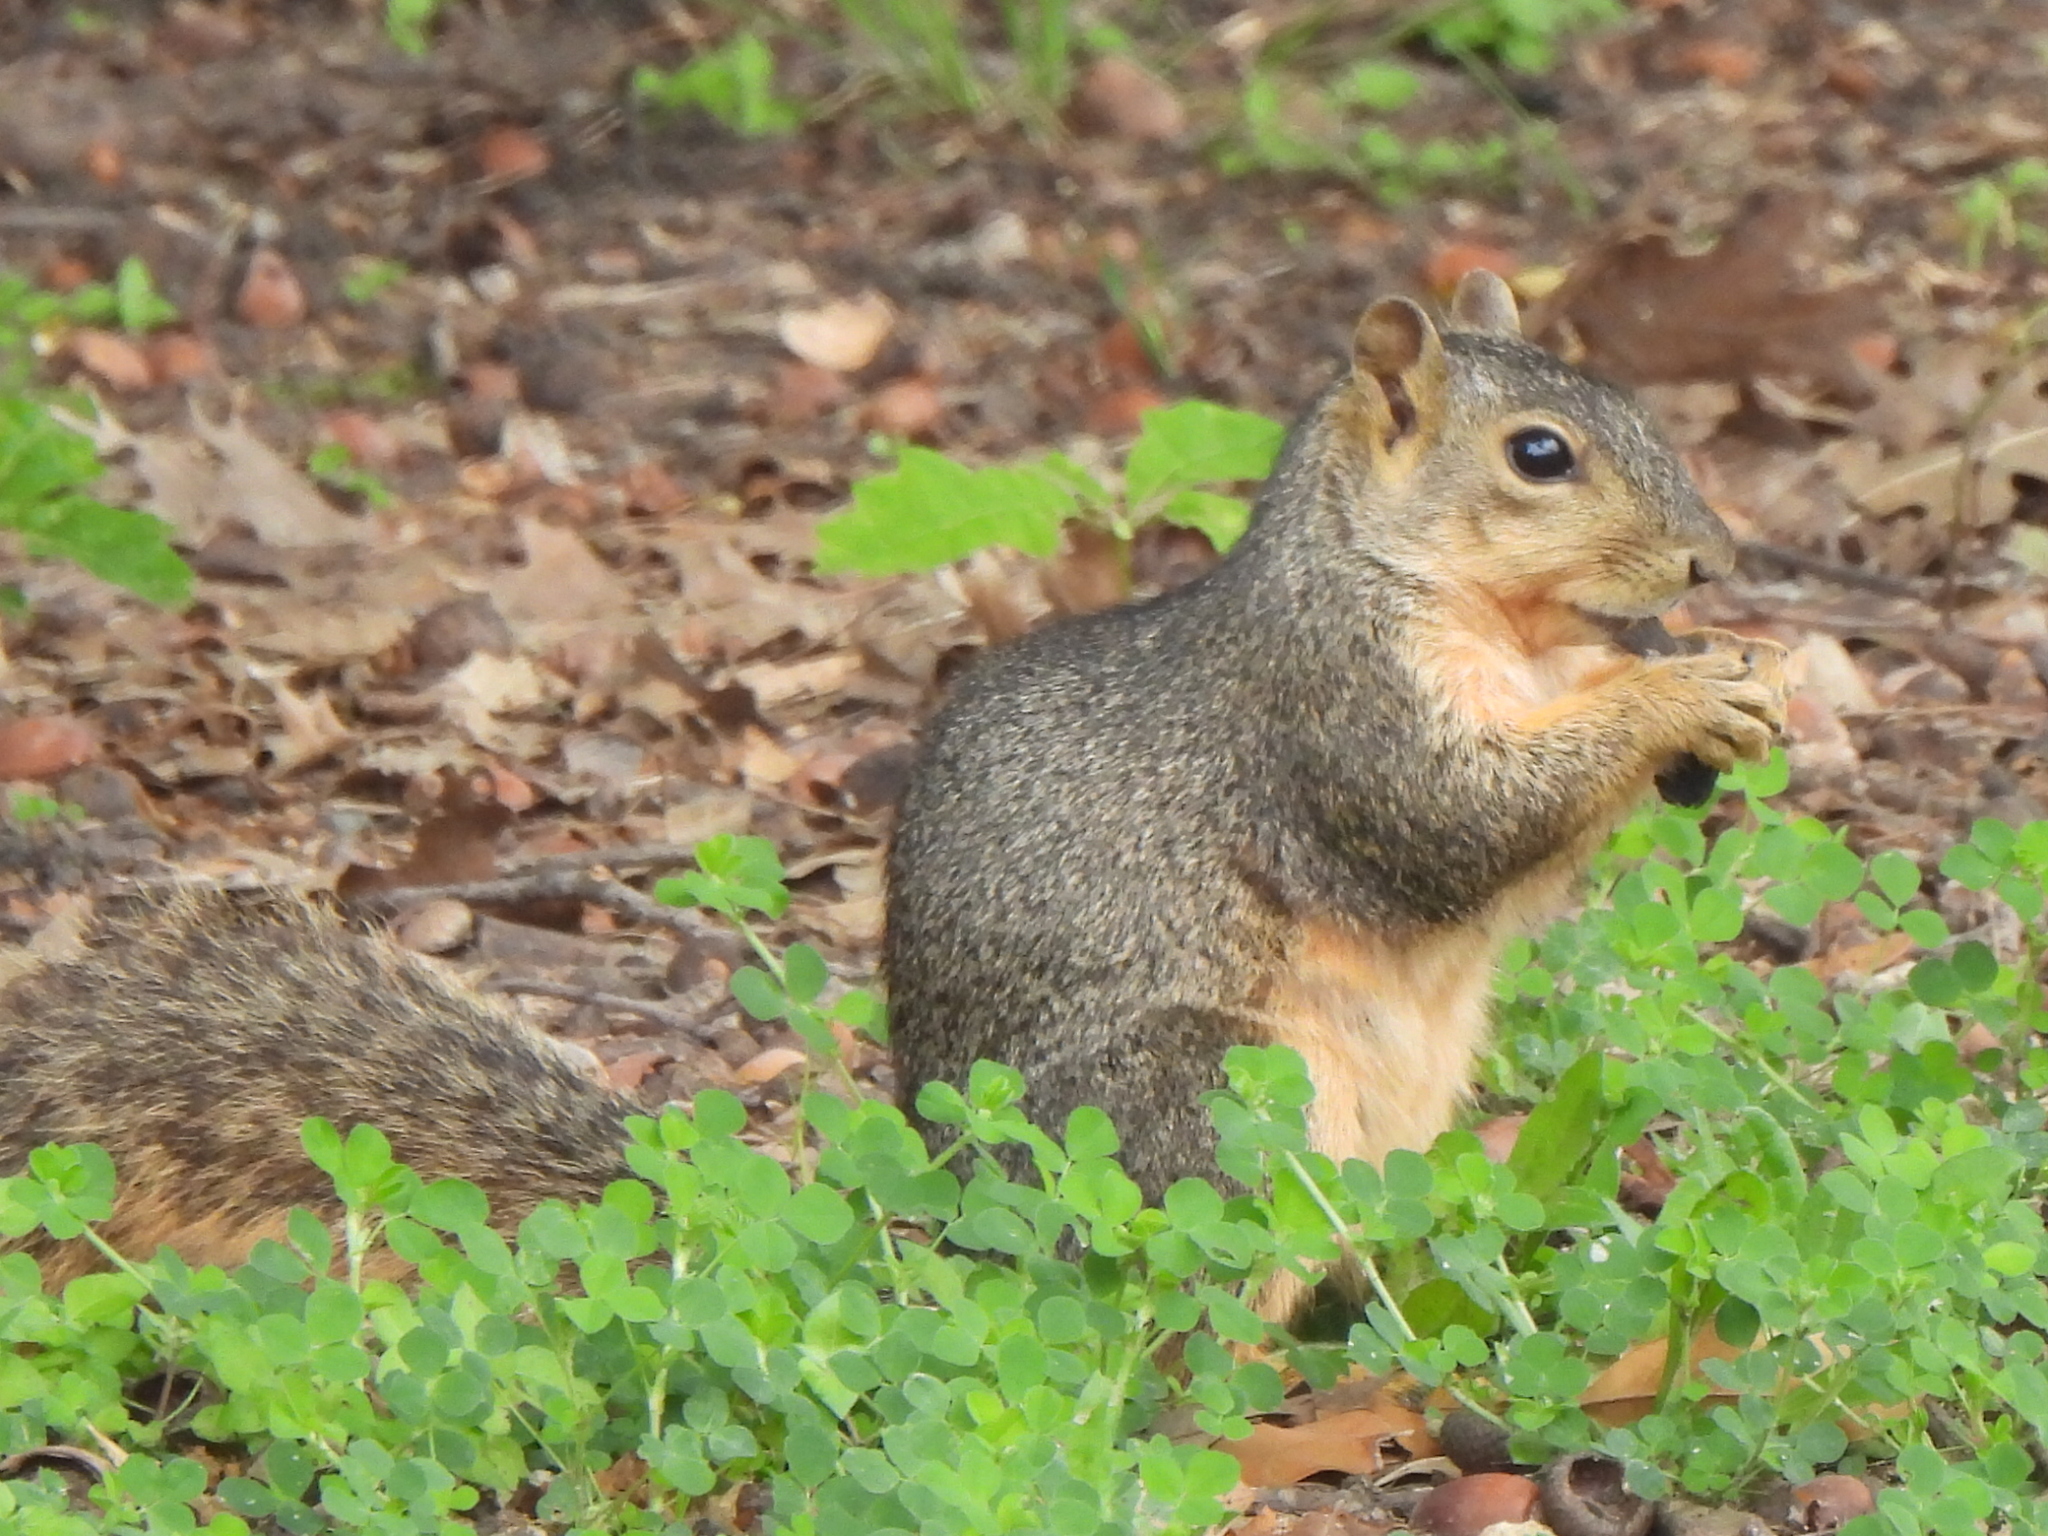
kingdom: Animalia
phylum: Chordata
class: Mammalia
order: Rodentia
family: Sciuridae
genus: Sciurus
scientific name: Sciurus niger
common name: Fox squirrel
